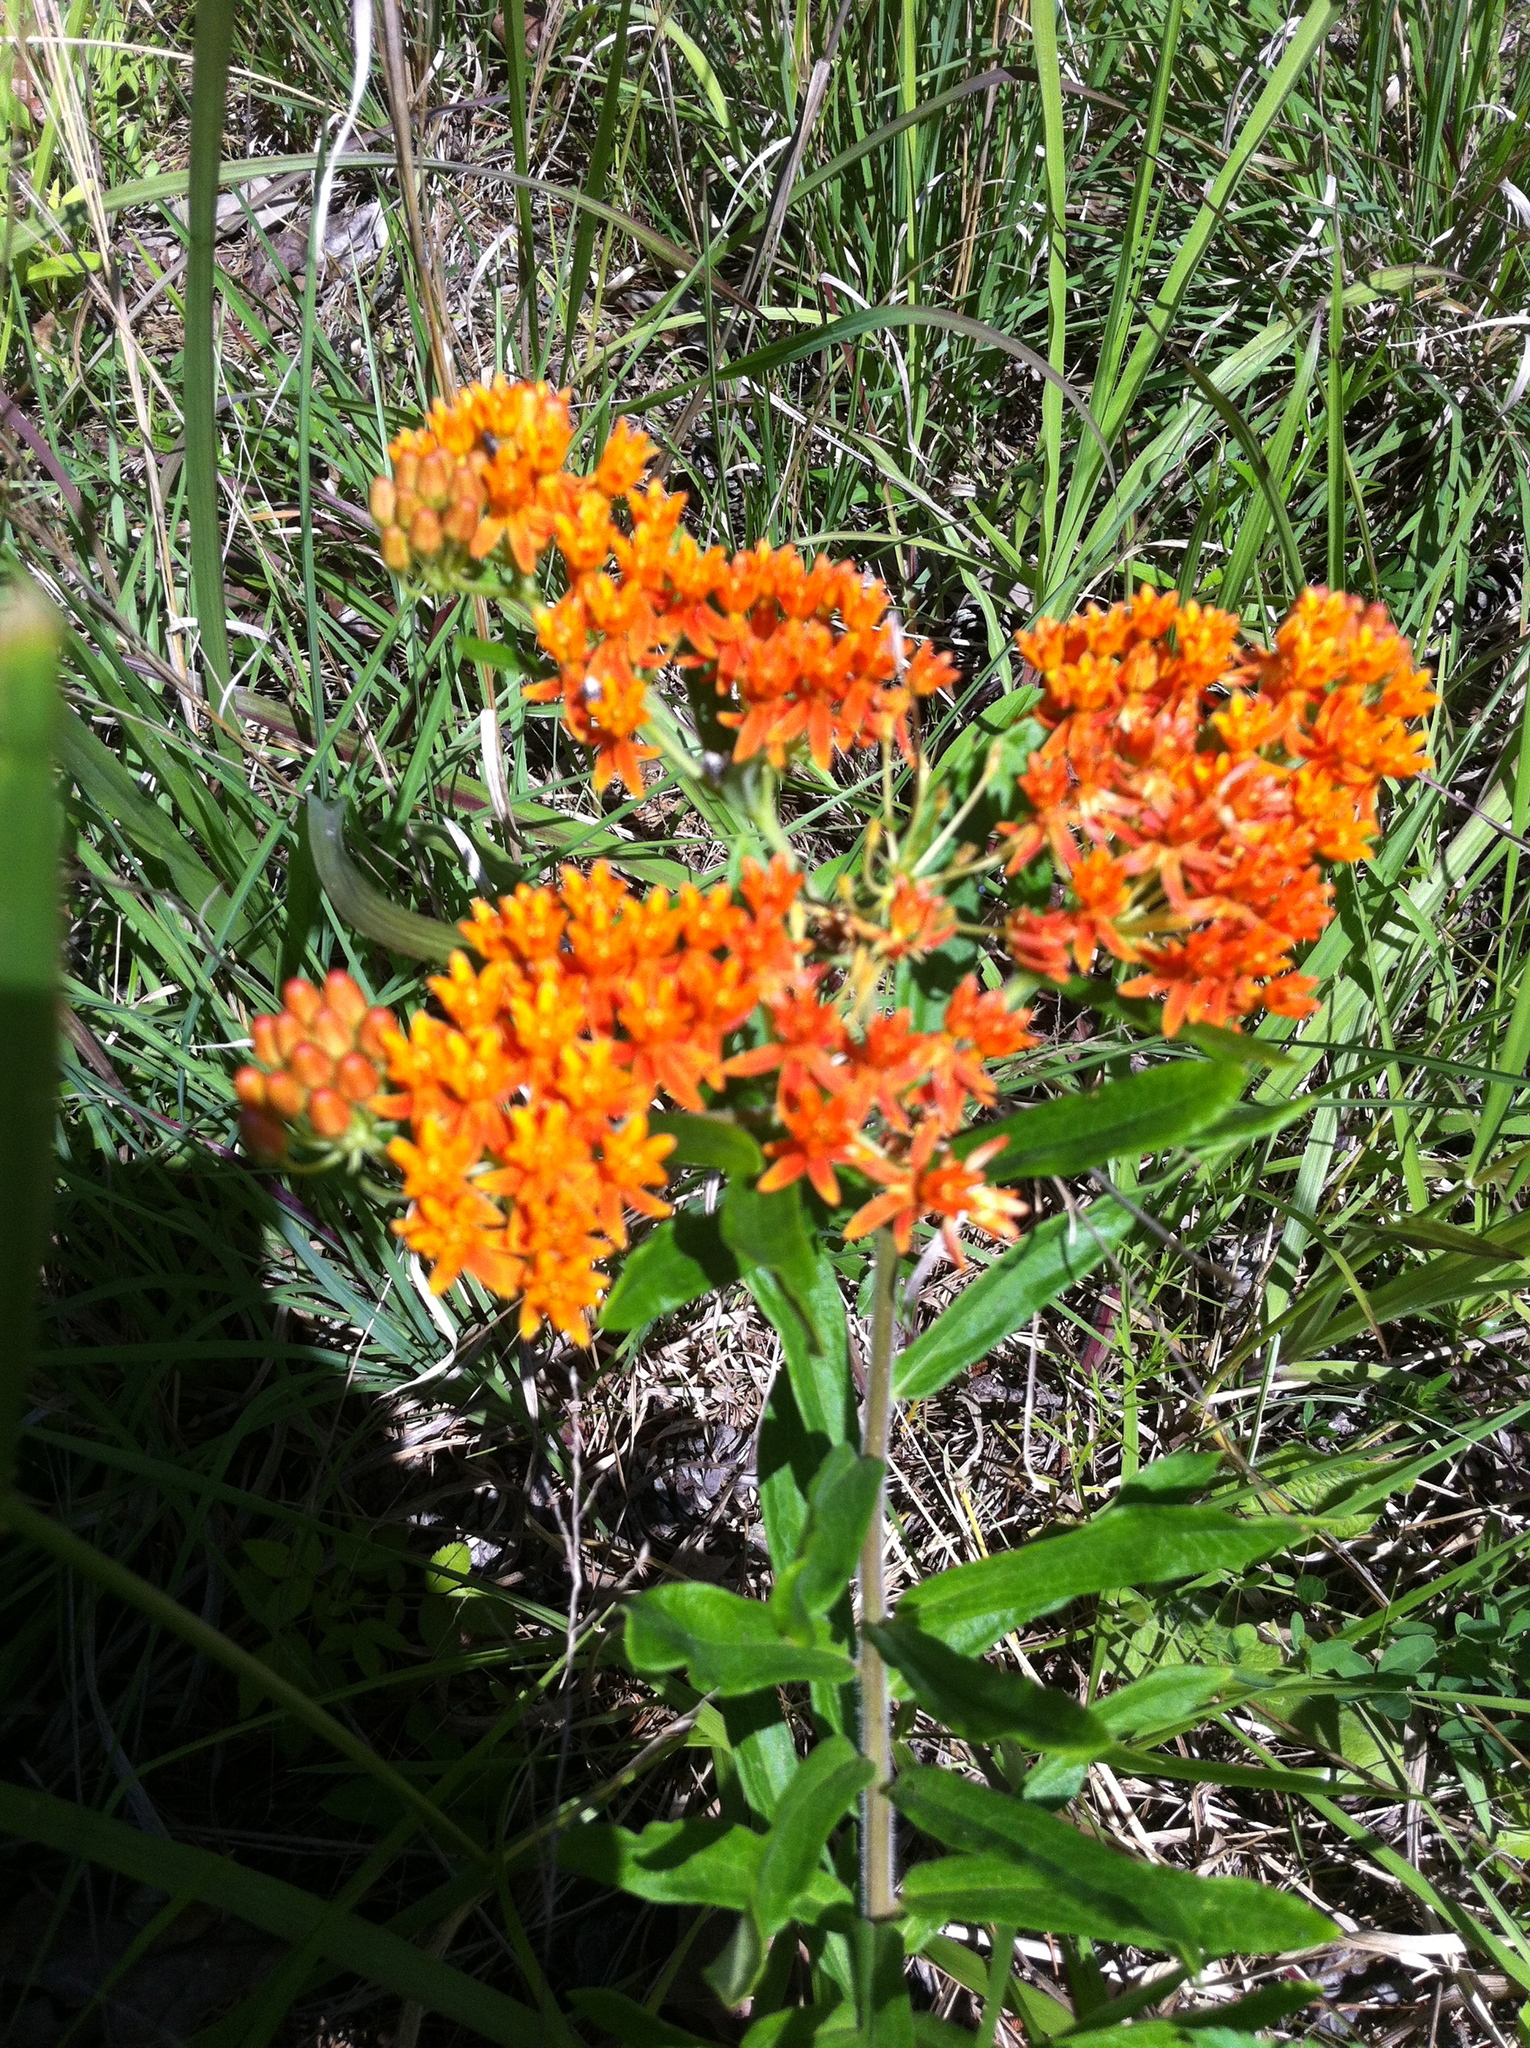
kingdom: Plantae
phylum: Tracheophyta
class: Magnoliopsida
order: Gentianales
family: Apocynaceae
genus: Asclepias
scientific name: Asclepias tuberosa
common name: Butterfly milkweed
